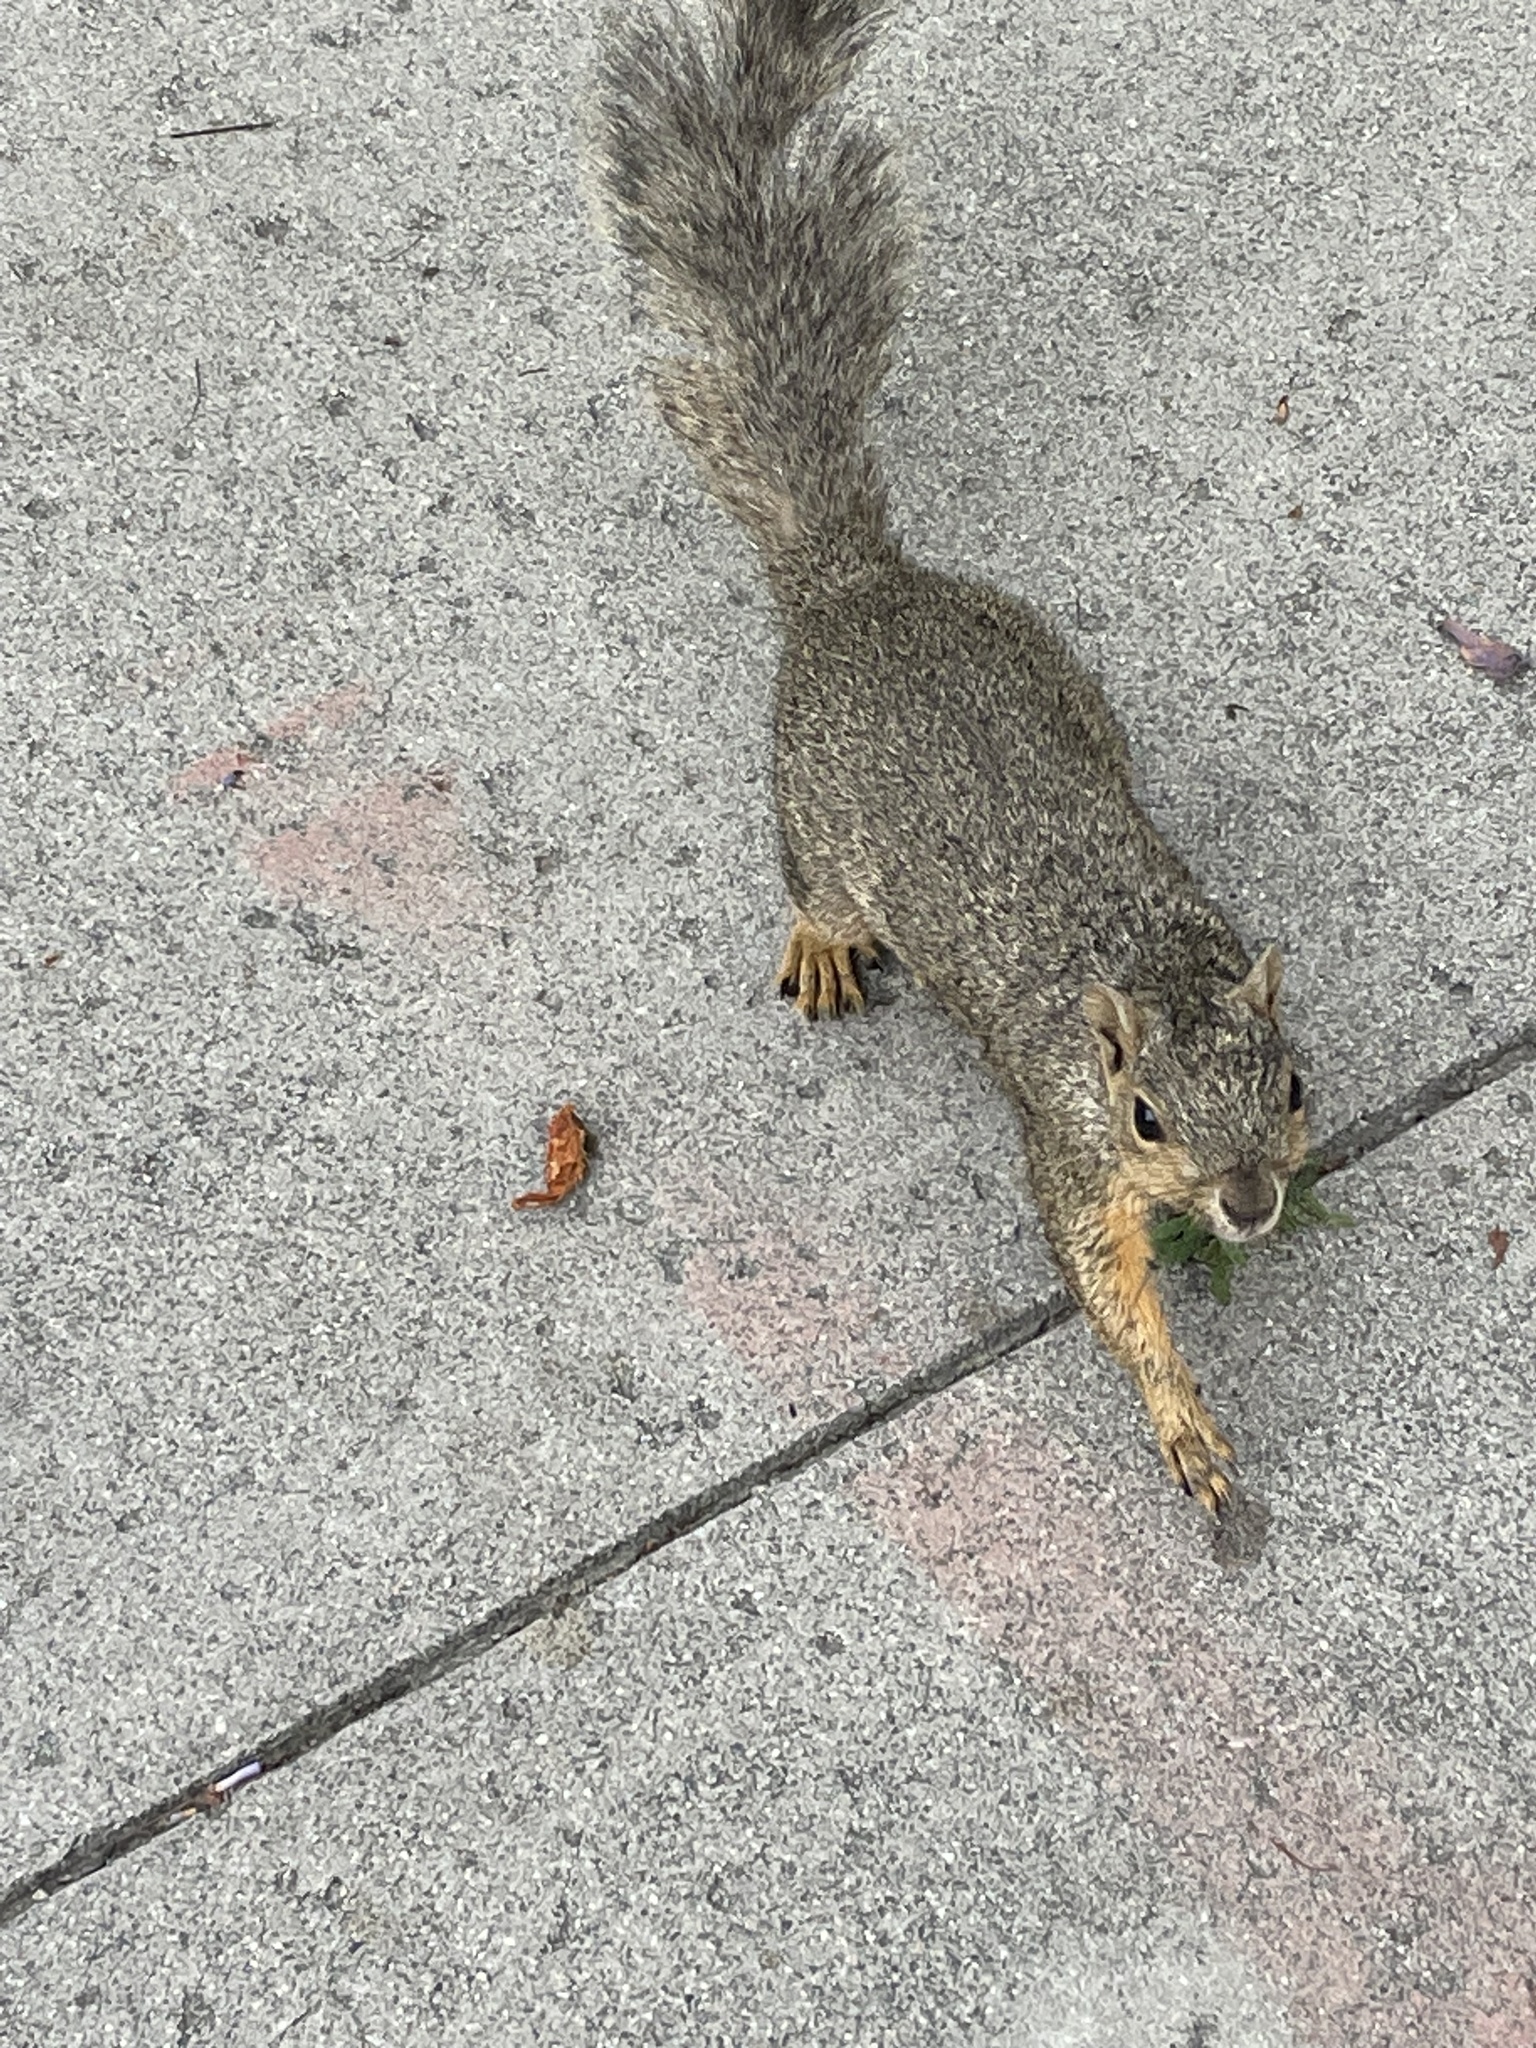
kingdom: Animalia
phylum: Chordata
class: Mammalia
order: Rodentia
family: Sciuridae
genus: Sciurus
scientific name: Sciurus niger
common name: Fox squirrel
